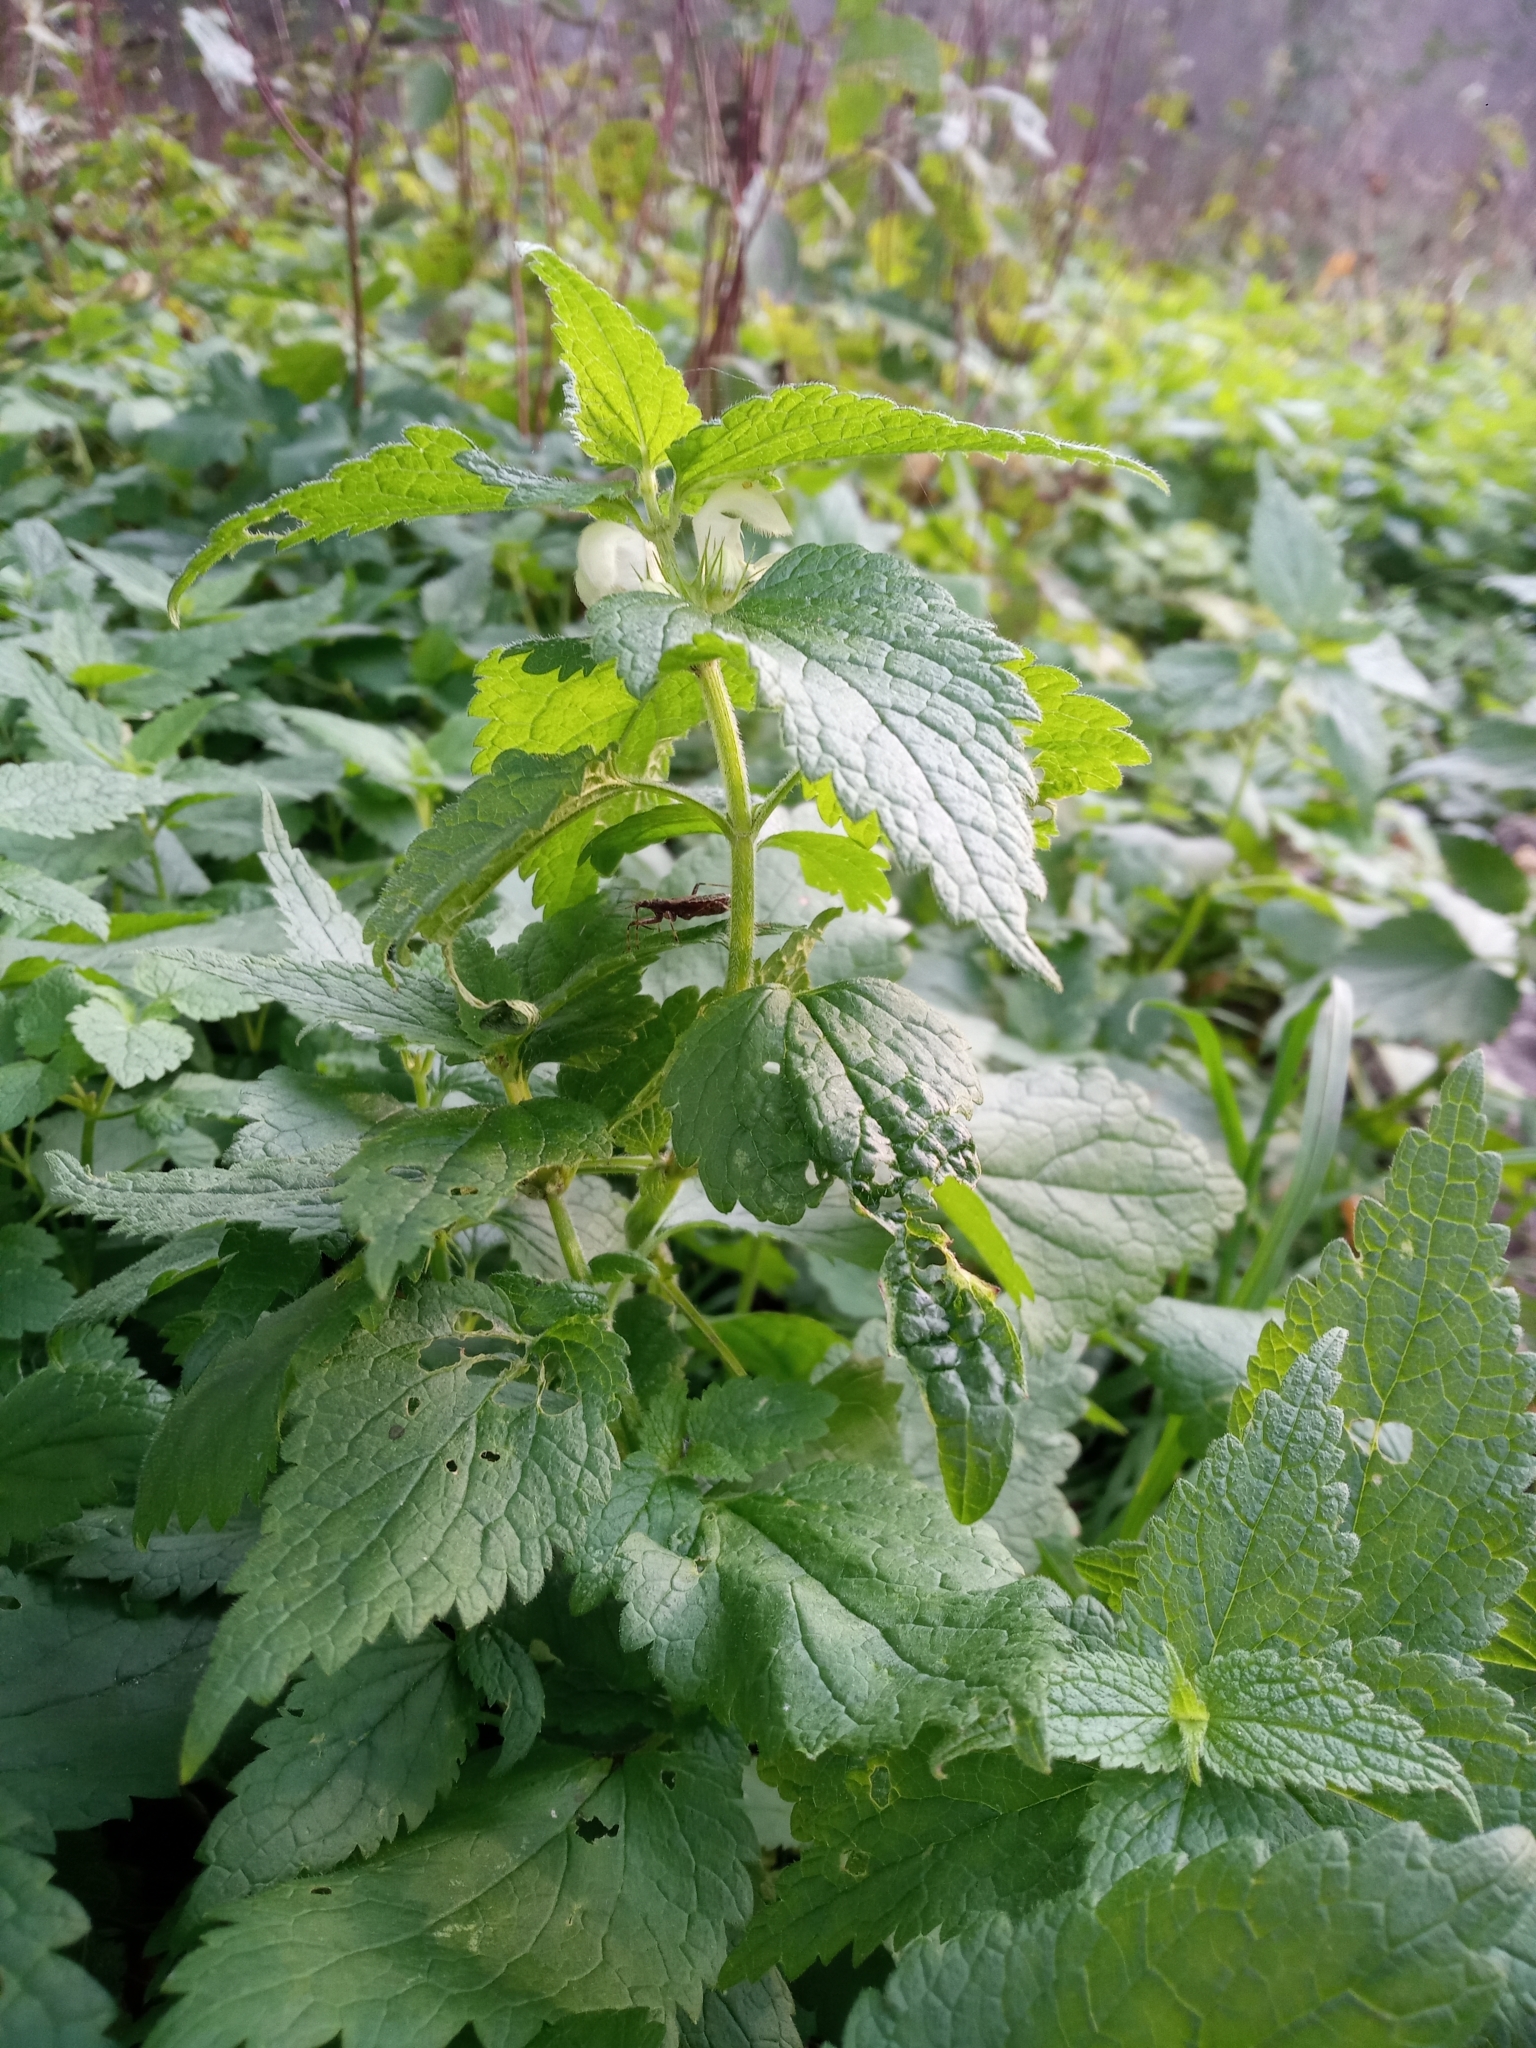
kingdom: Plantae
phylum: Tracheophyta
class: Magnoliopsida
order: Lamiales
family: Lamiaceae
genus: Lamium
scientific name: Lamium album
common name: White dead-nettle
